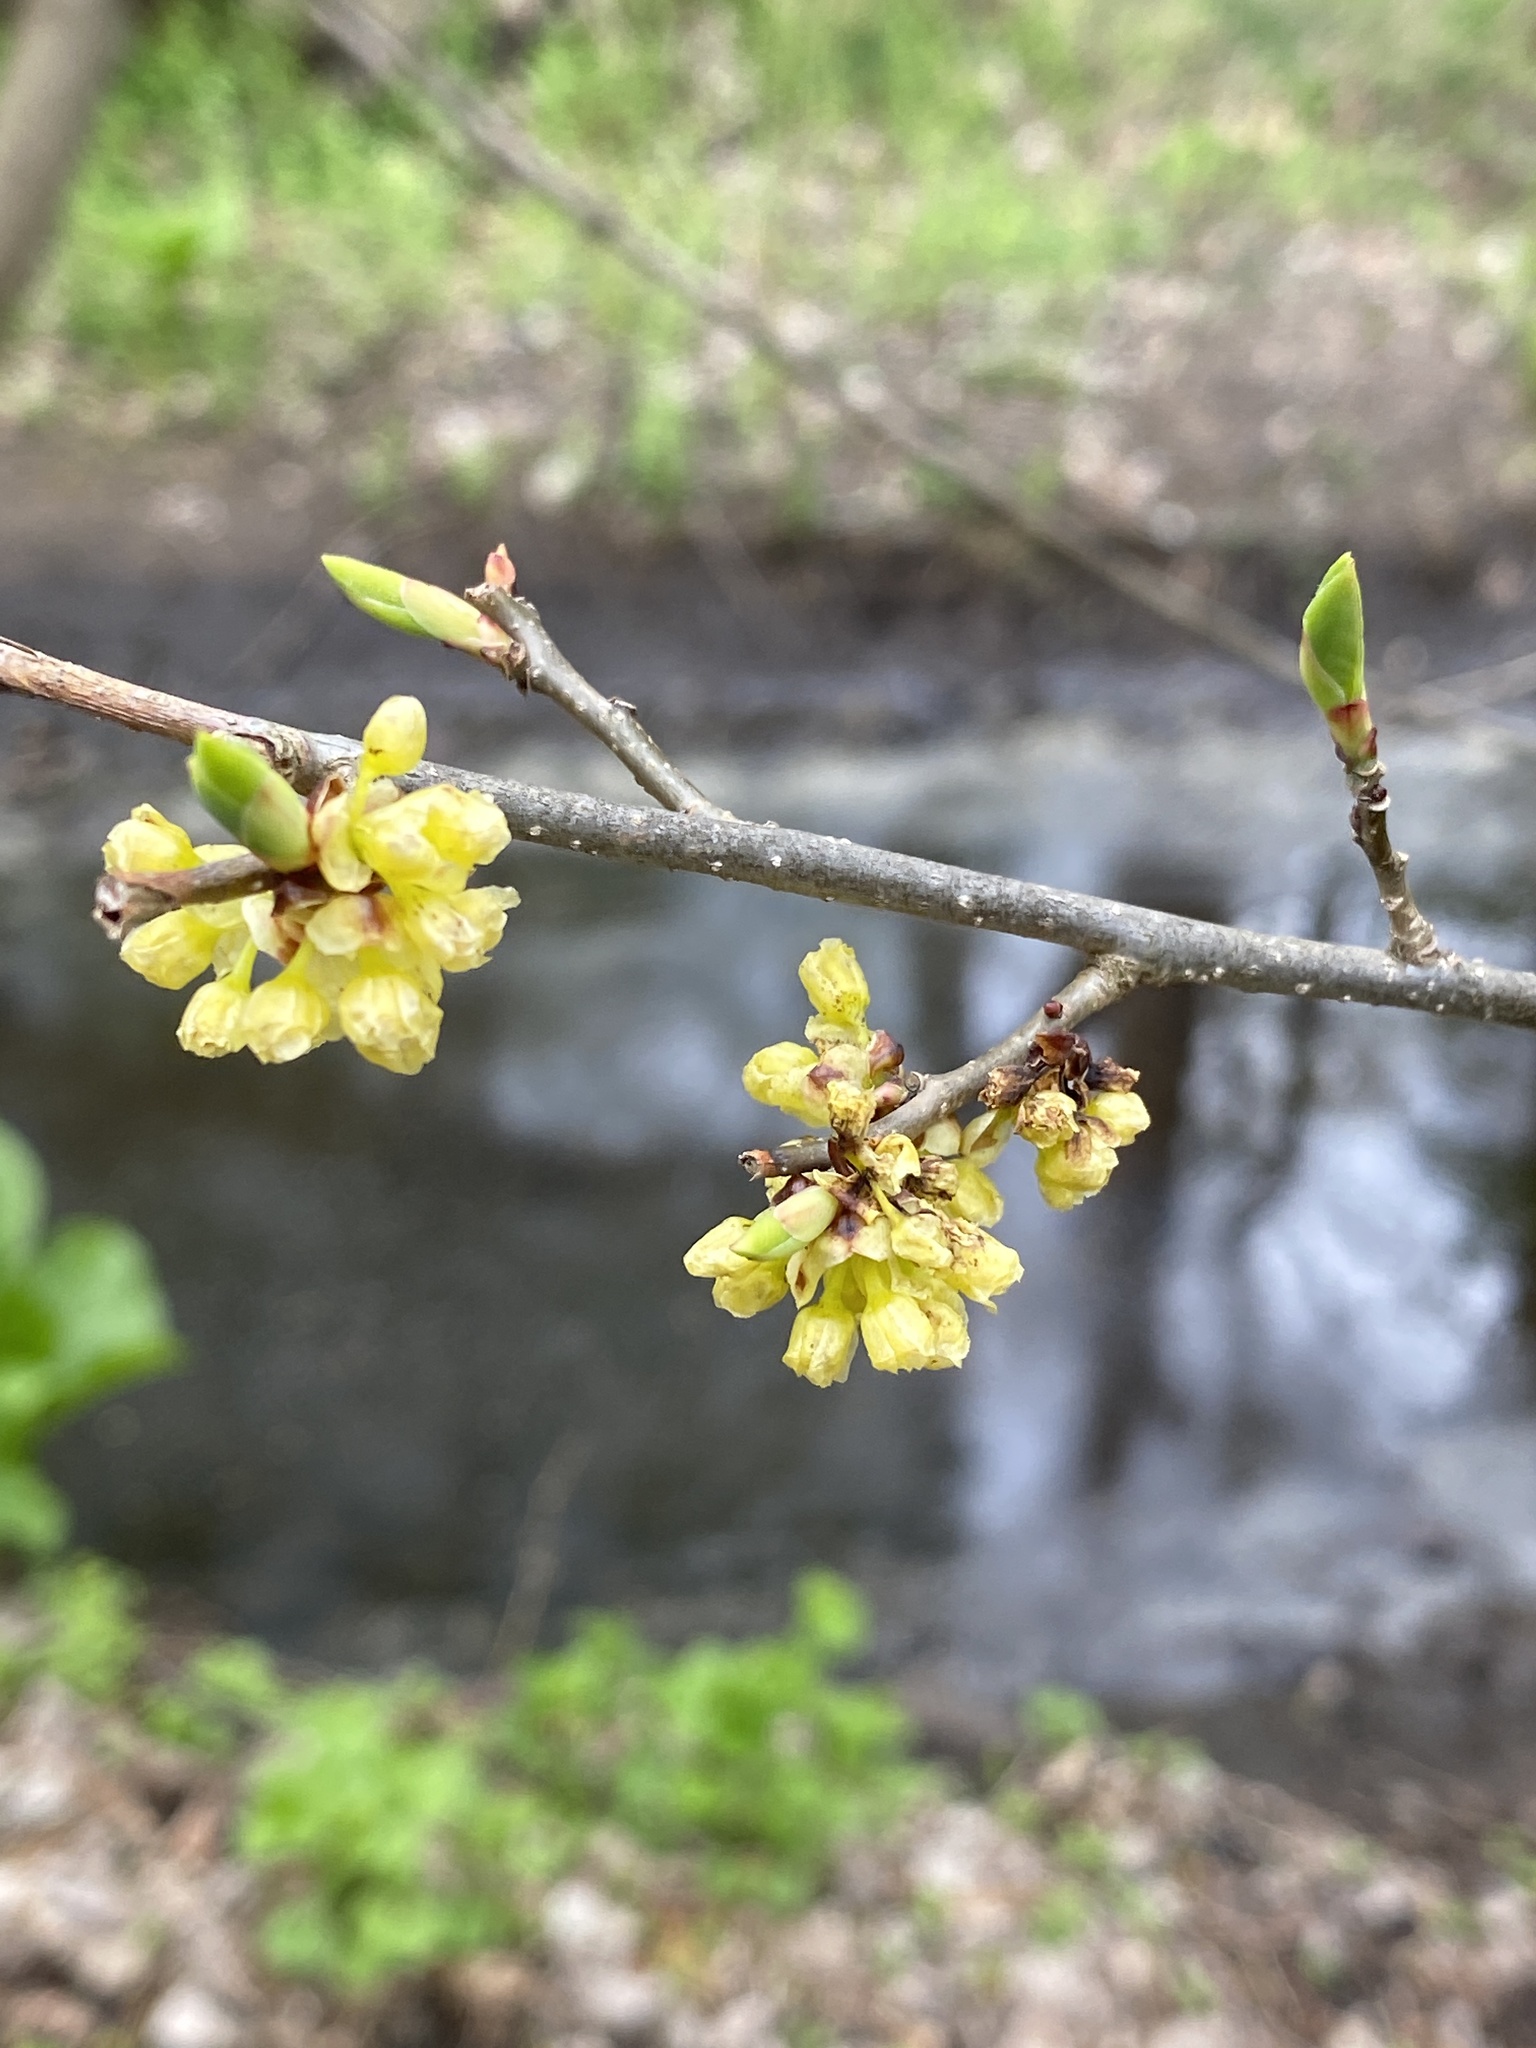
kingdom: Plantae
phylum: Tracheophyta
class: Magnoliopsida
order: Laurales
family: Lauraceae
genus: Lindera
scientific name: Lindera benzoin
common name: Spicebush
